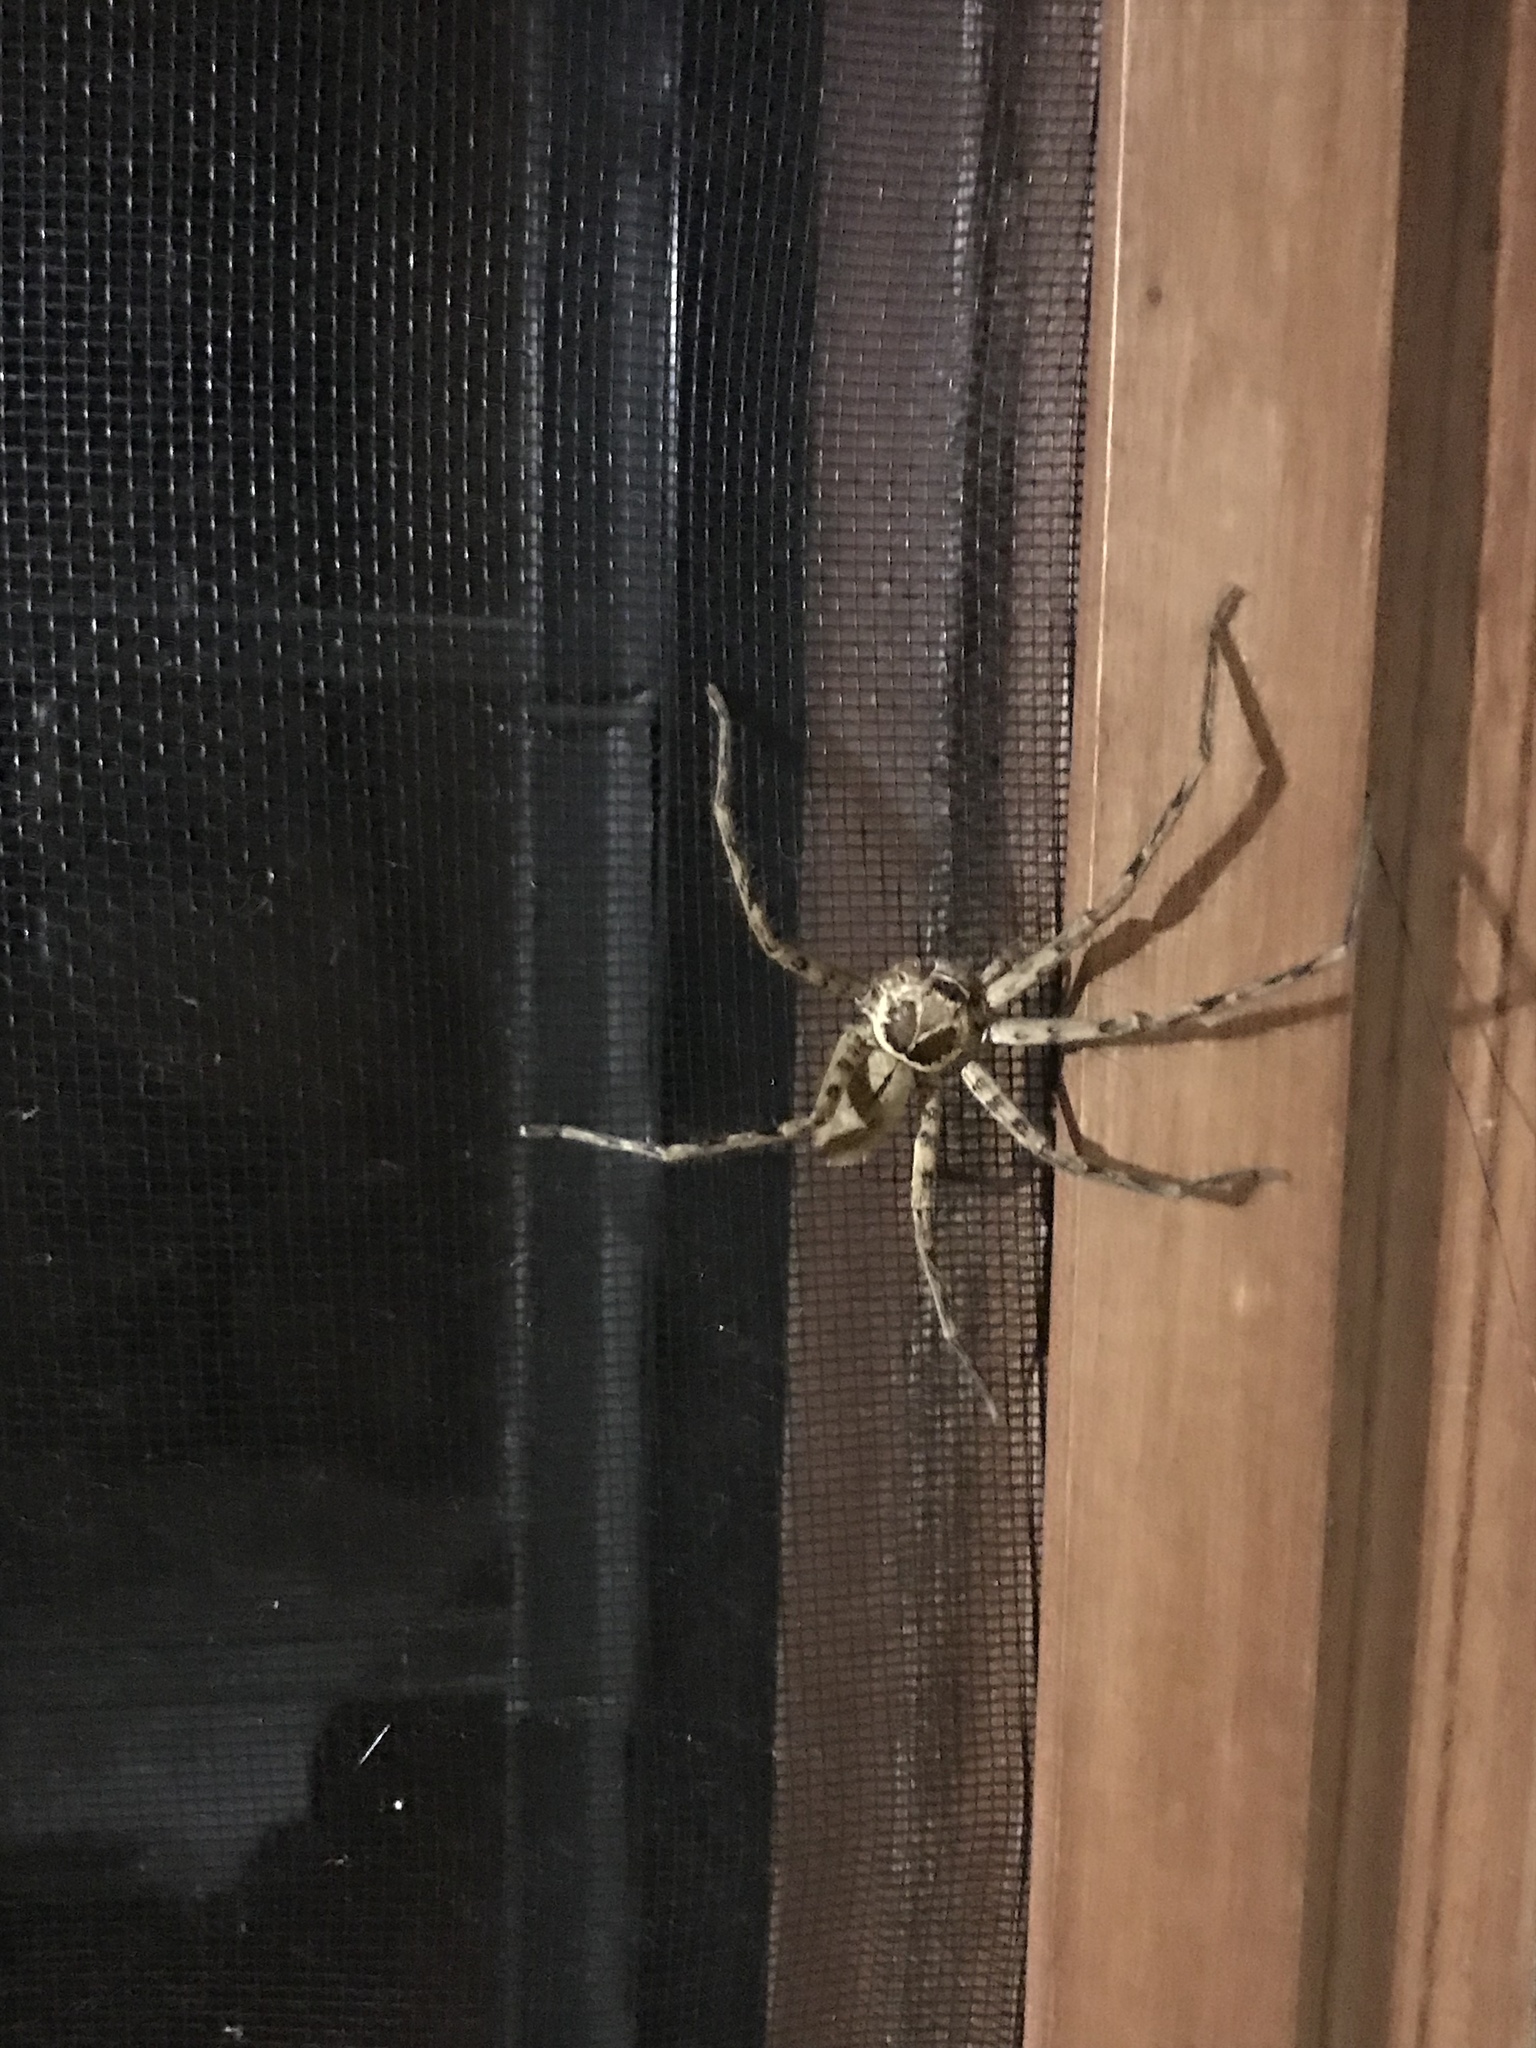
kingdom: Animalia
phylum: Arthropoda
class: Arachnida
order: Araneae
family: Sparassidae
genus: Heteropoda
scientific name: Heteropoda venatoria
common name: Huntsman spider
